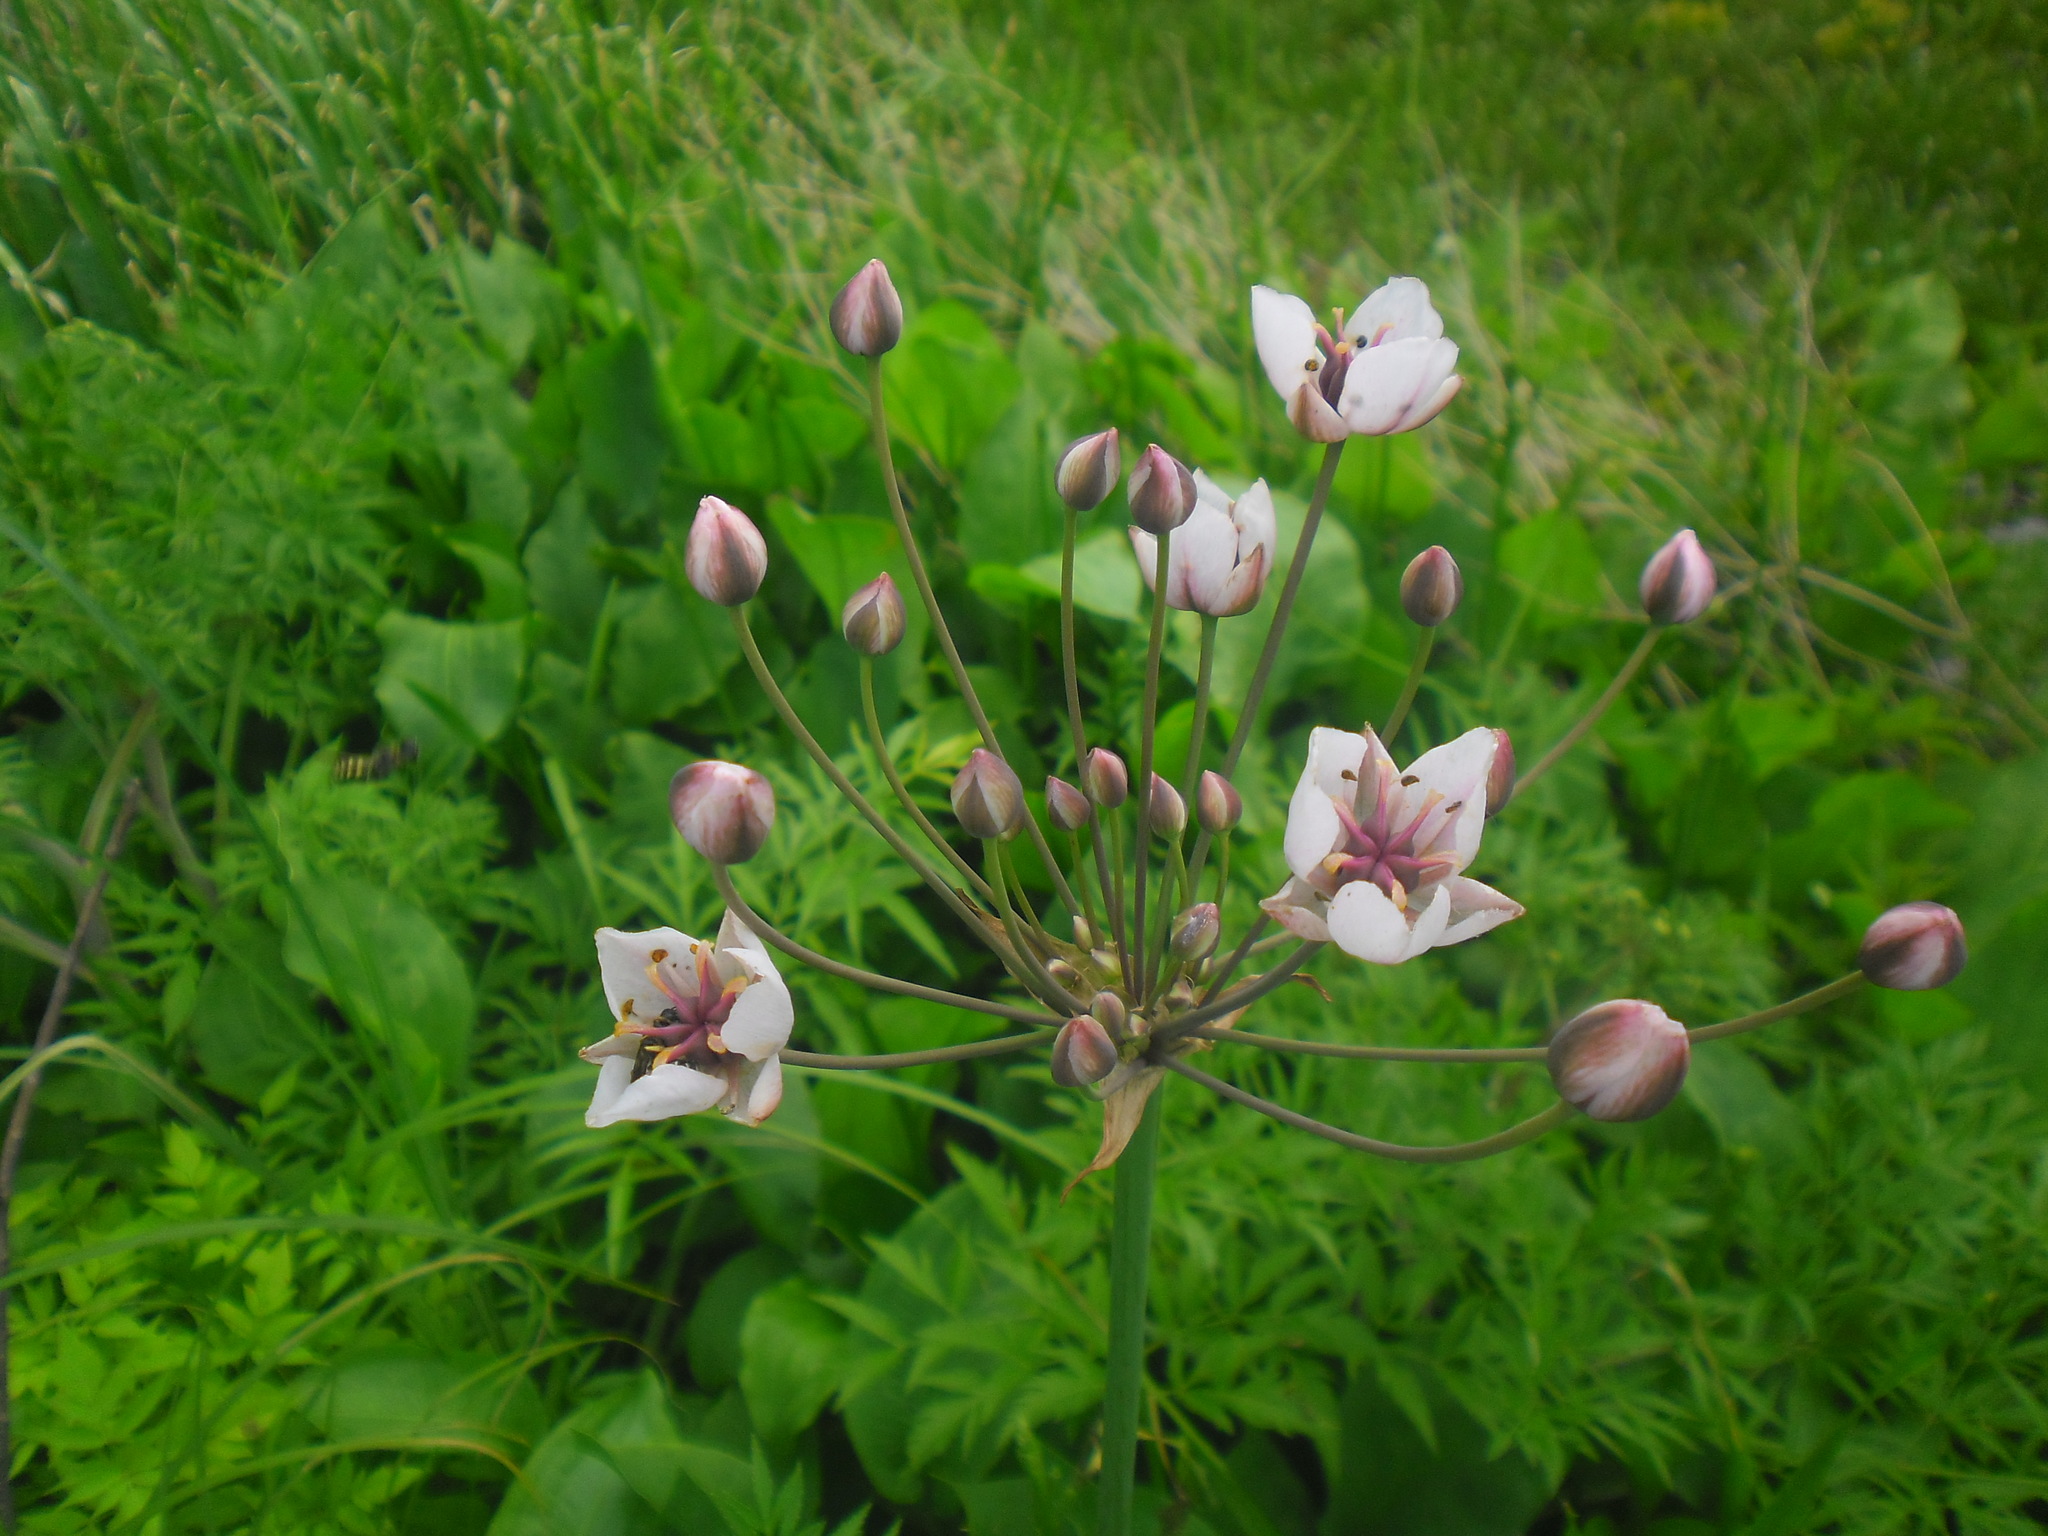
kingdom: Plantae
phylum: Tracheophyta
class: Liliopsida
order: Alismatales
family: Butomaceae
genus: Butomus
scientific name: Butomus umbellatus
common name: Flowering-rush
